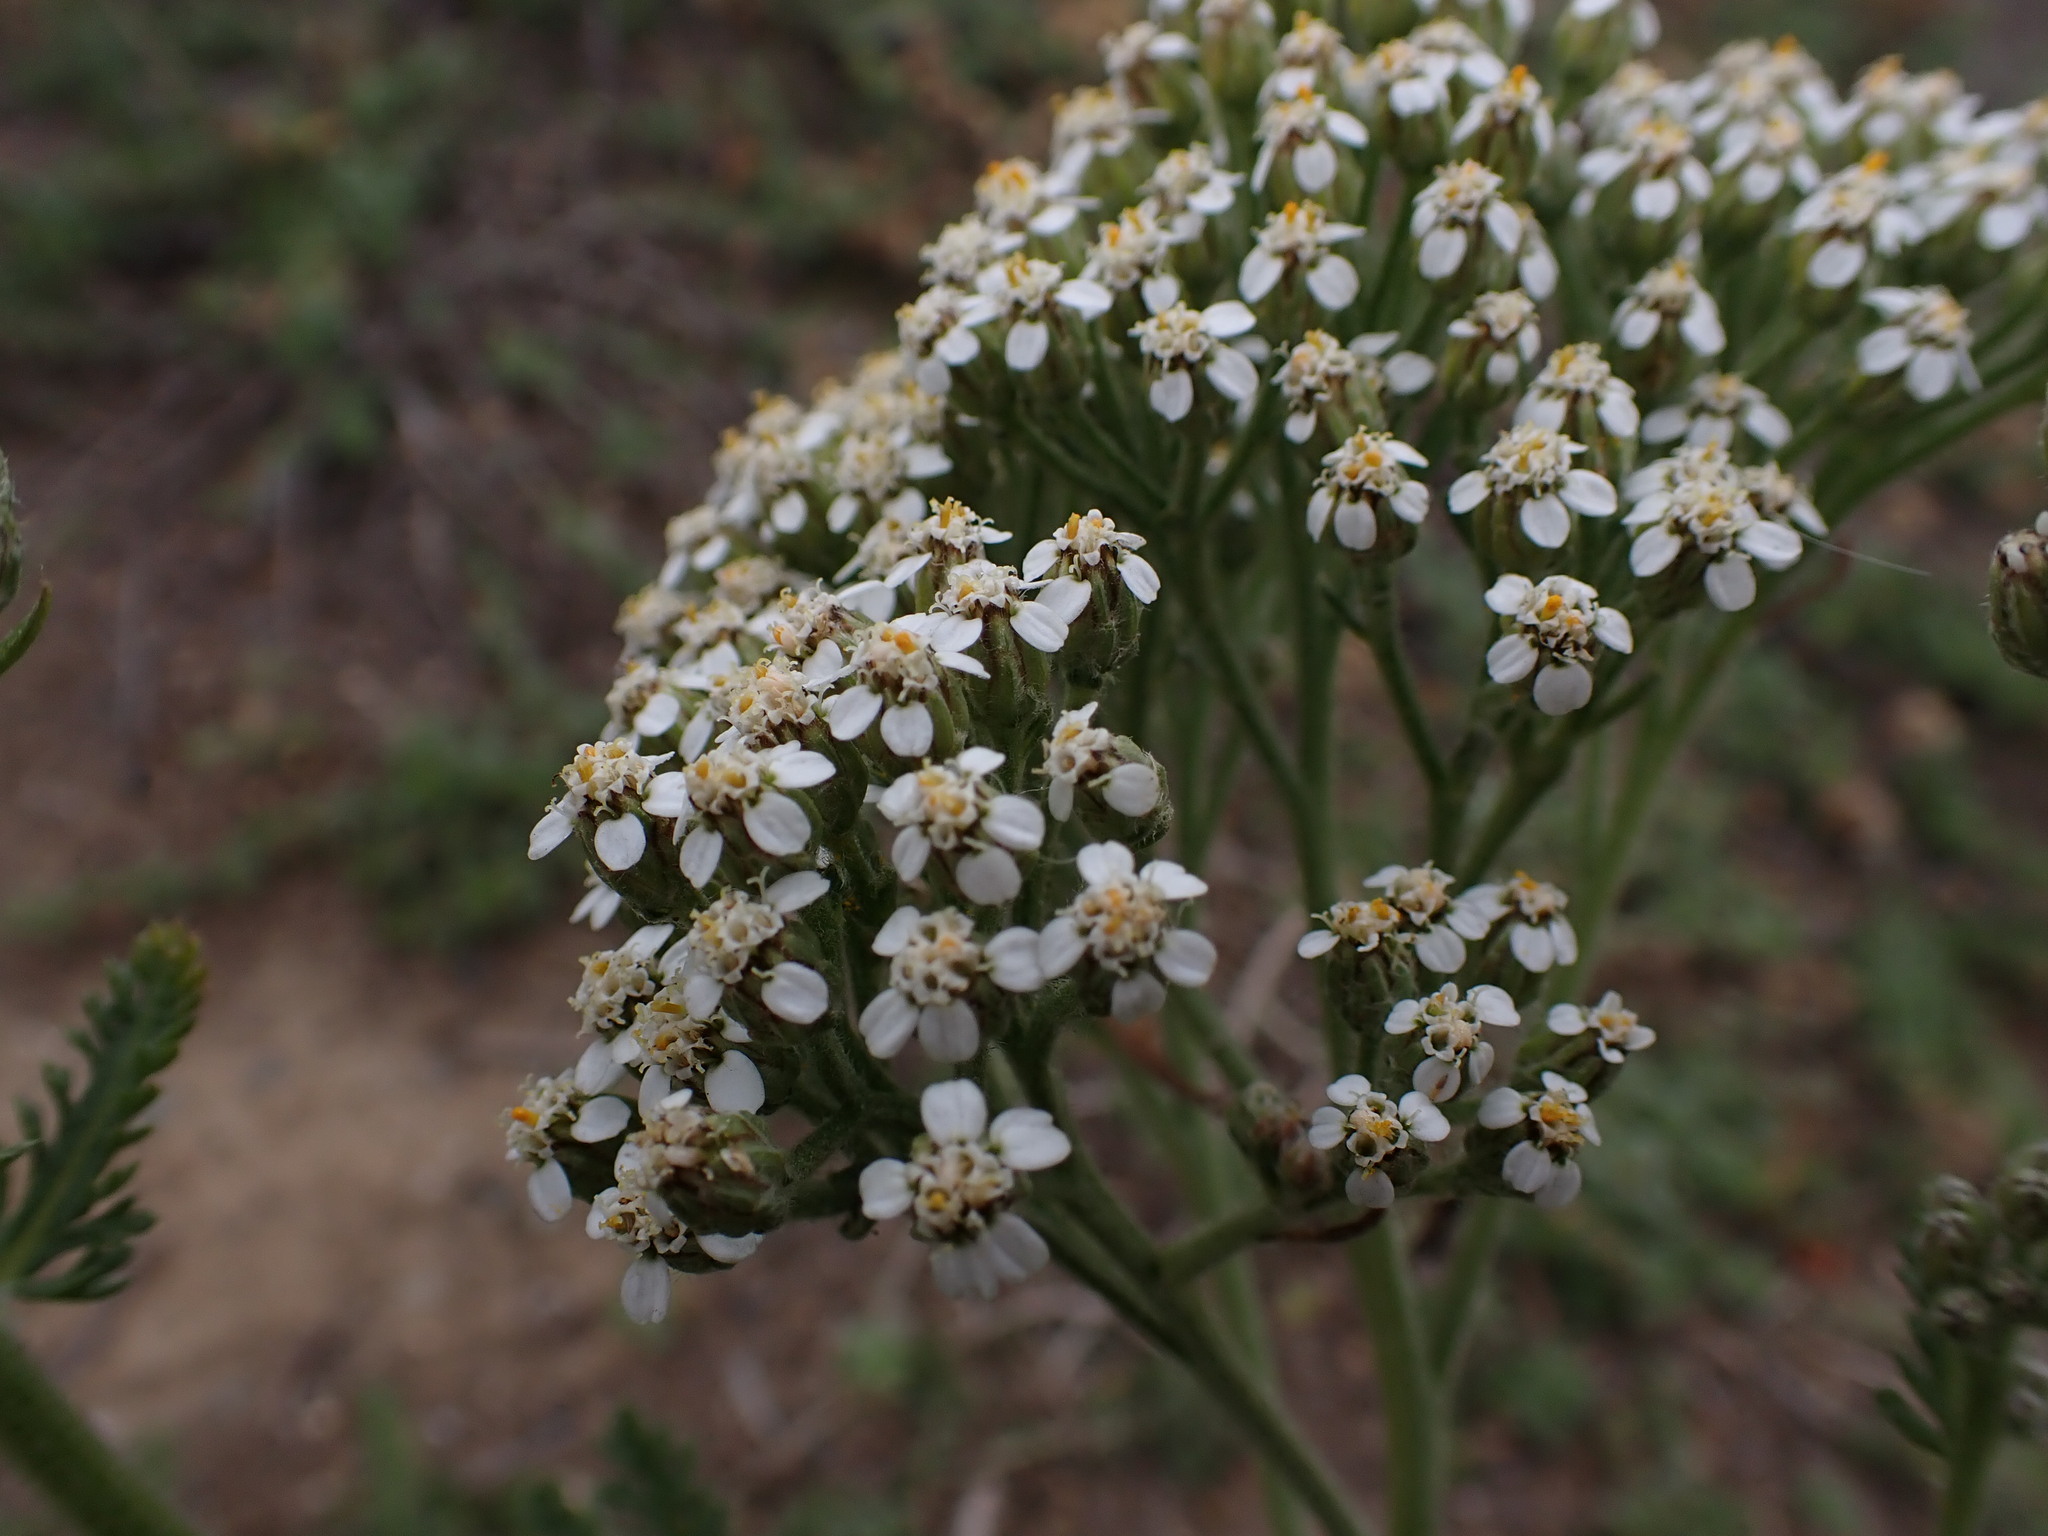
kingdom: Plantae
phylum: Tracheophyta
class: Magnoliopsida
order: Asterales
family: Asteraceae
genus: Achillea
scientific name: Achillea millefolium
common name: Yarrow
